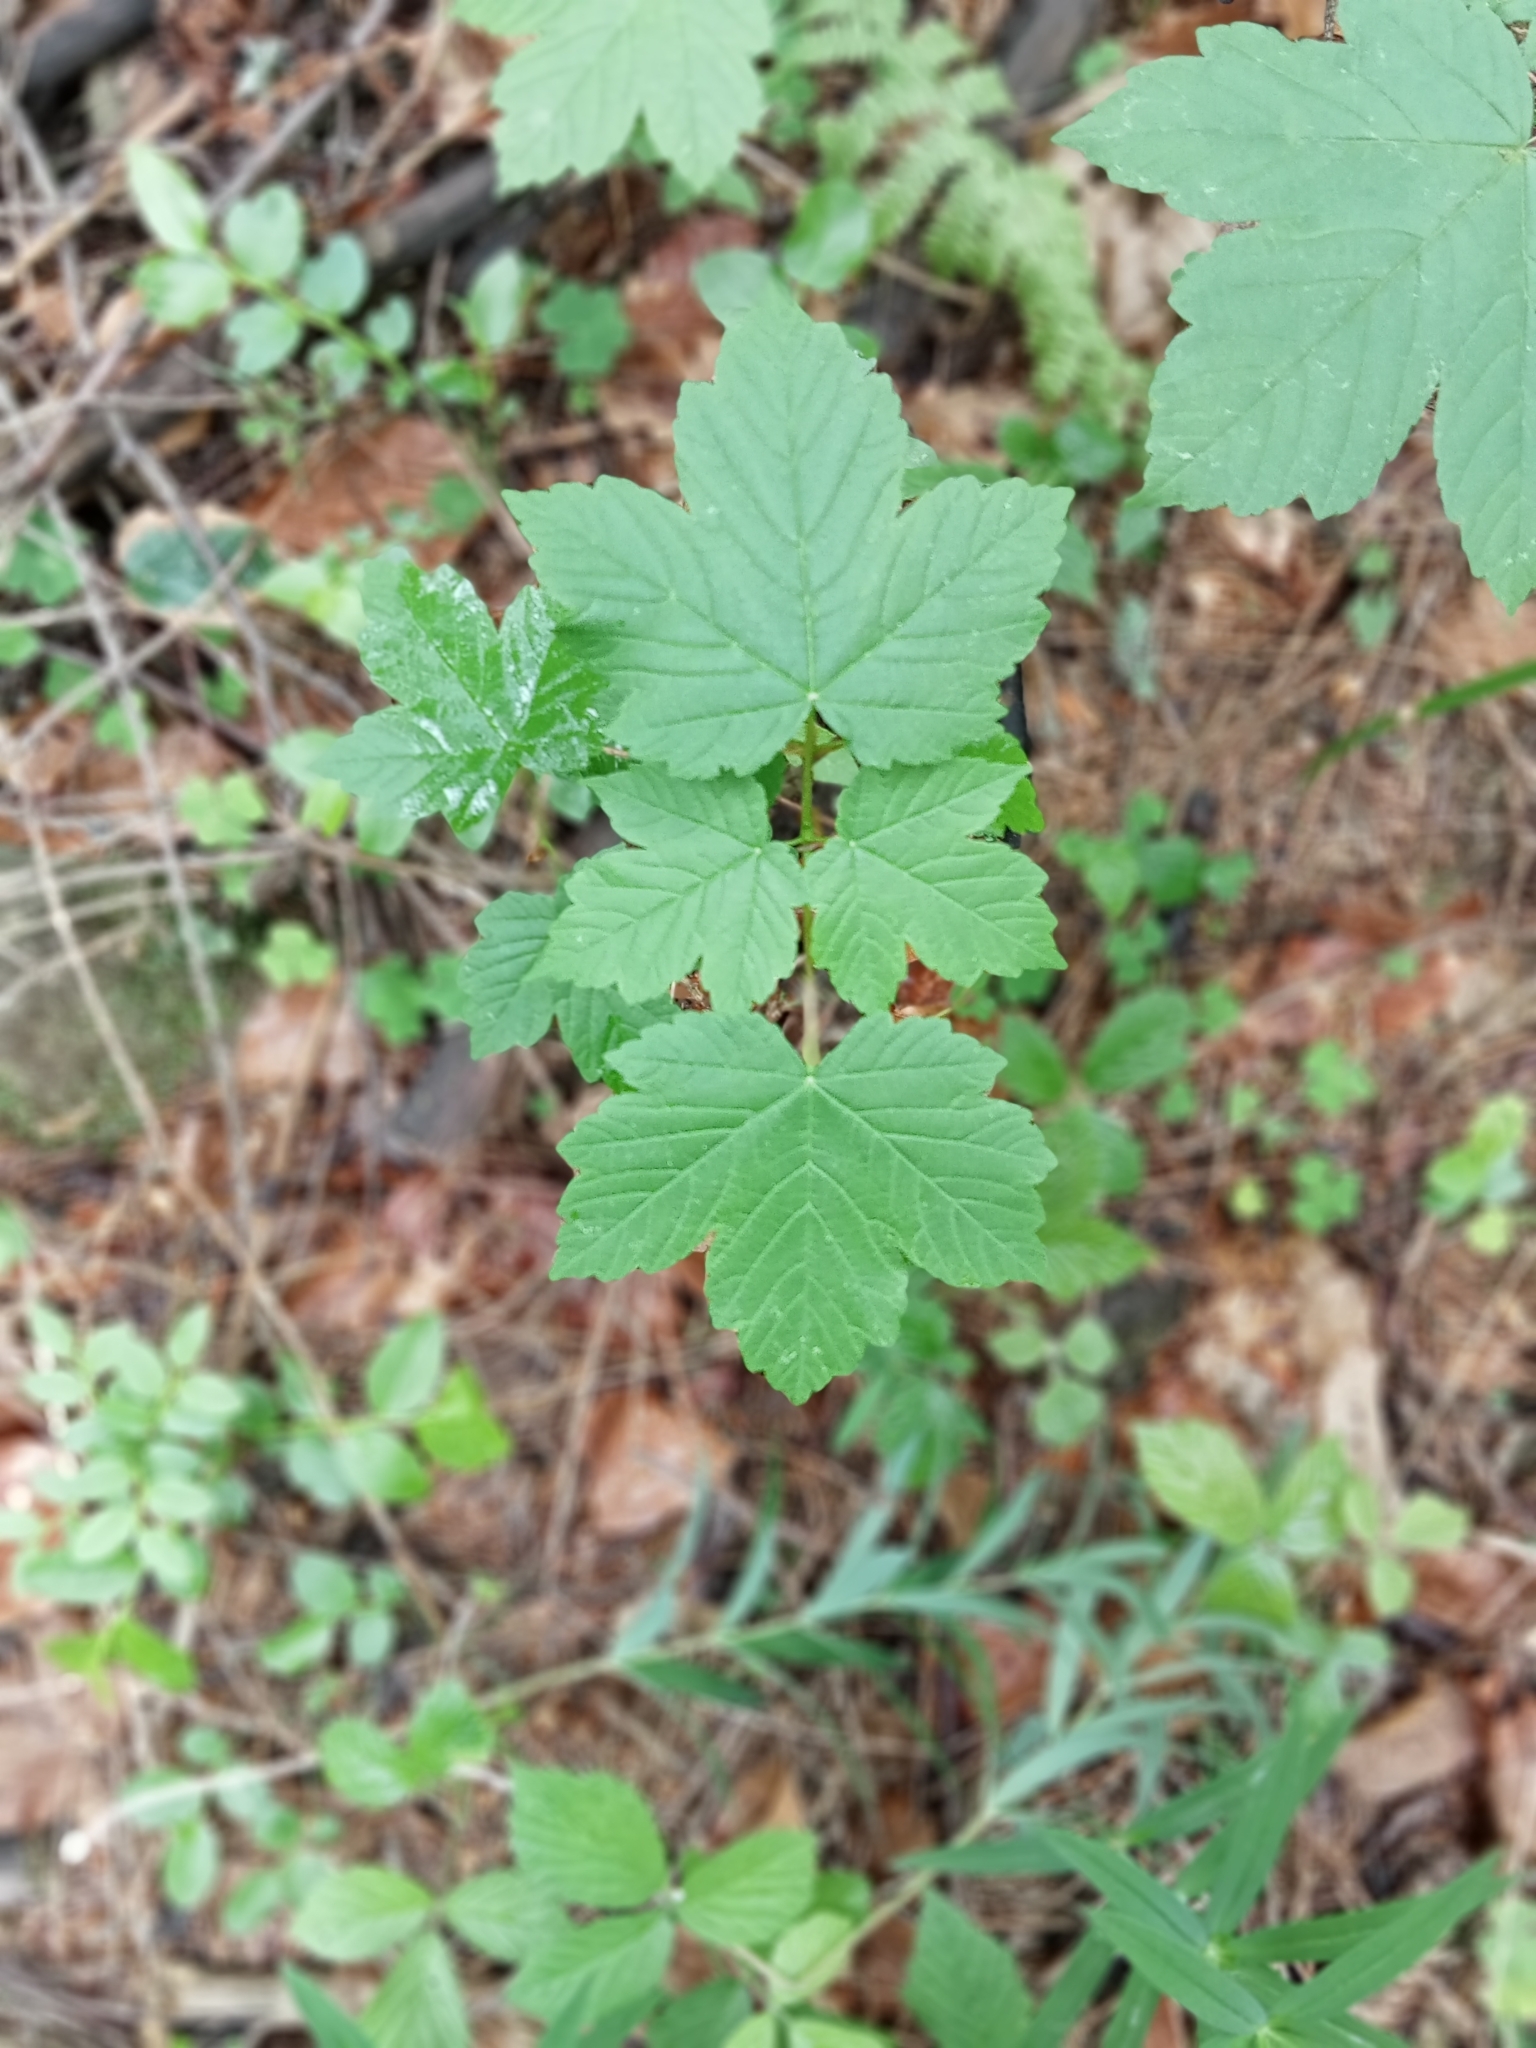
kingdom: Plantae
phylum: Tracheophyta
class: Magnoliopsida
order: Sapindales
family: Sapindaceae
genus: Acer
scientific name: Acer pseudoplatanus
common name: Sycamore
